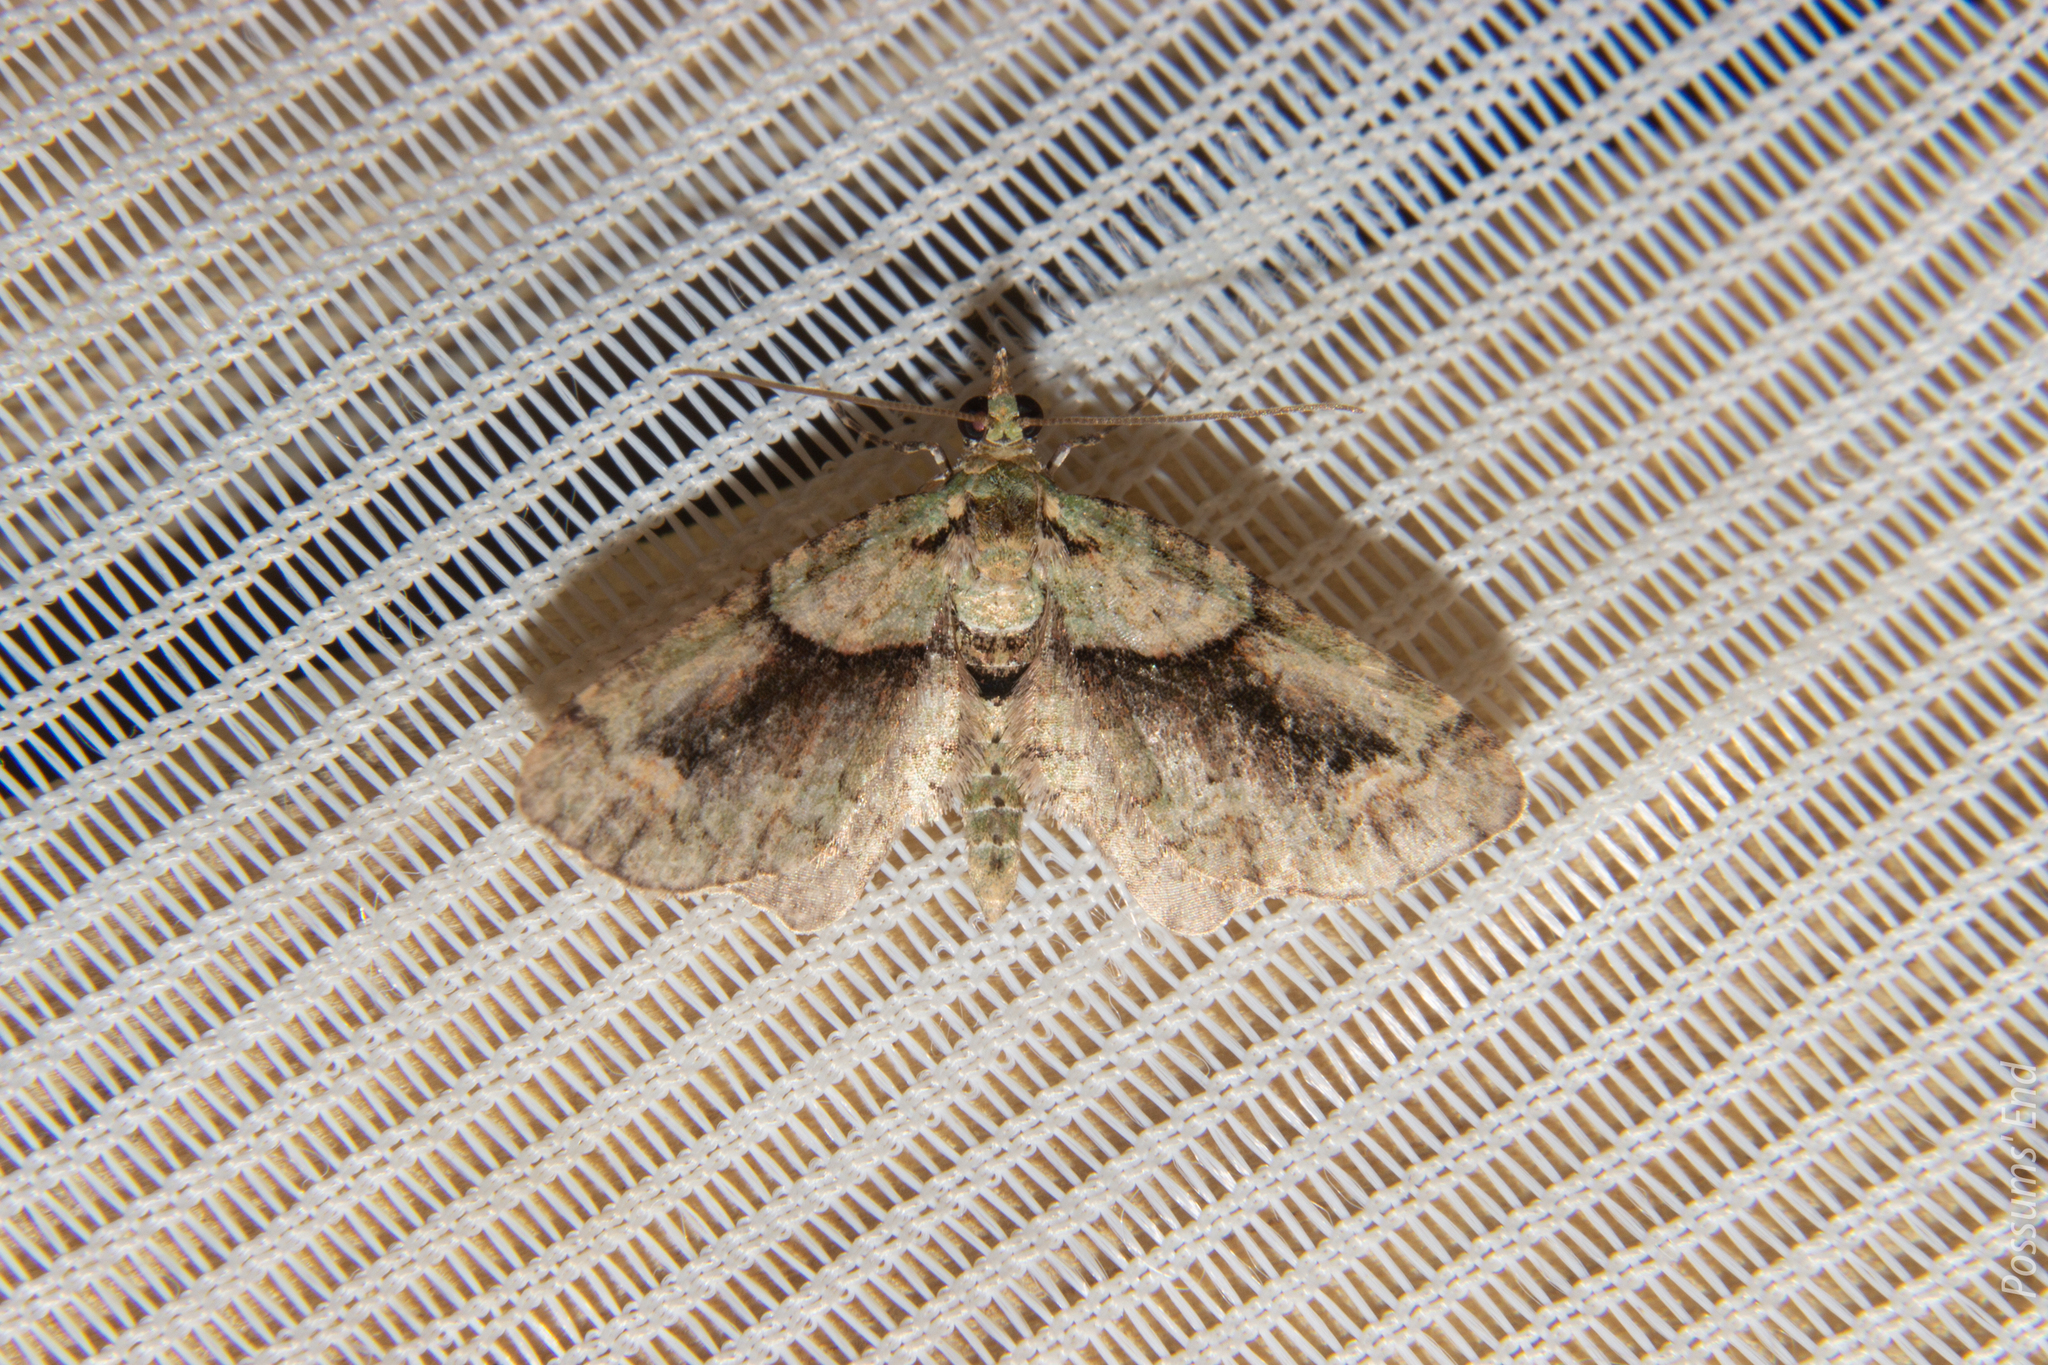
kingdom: Animalia
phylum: Arthropoda
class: Insecta
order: Lepidoptera
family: Geometridae
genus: Pasiphila
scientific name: Pasiphila suffusa
